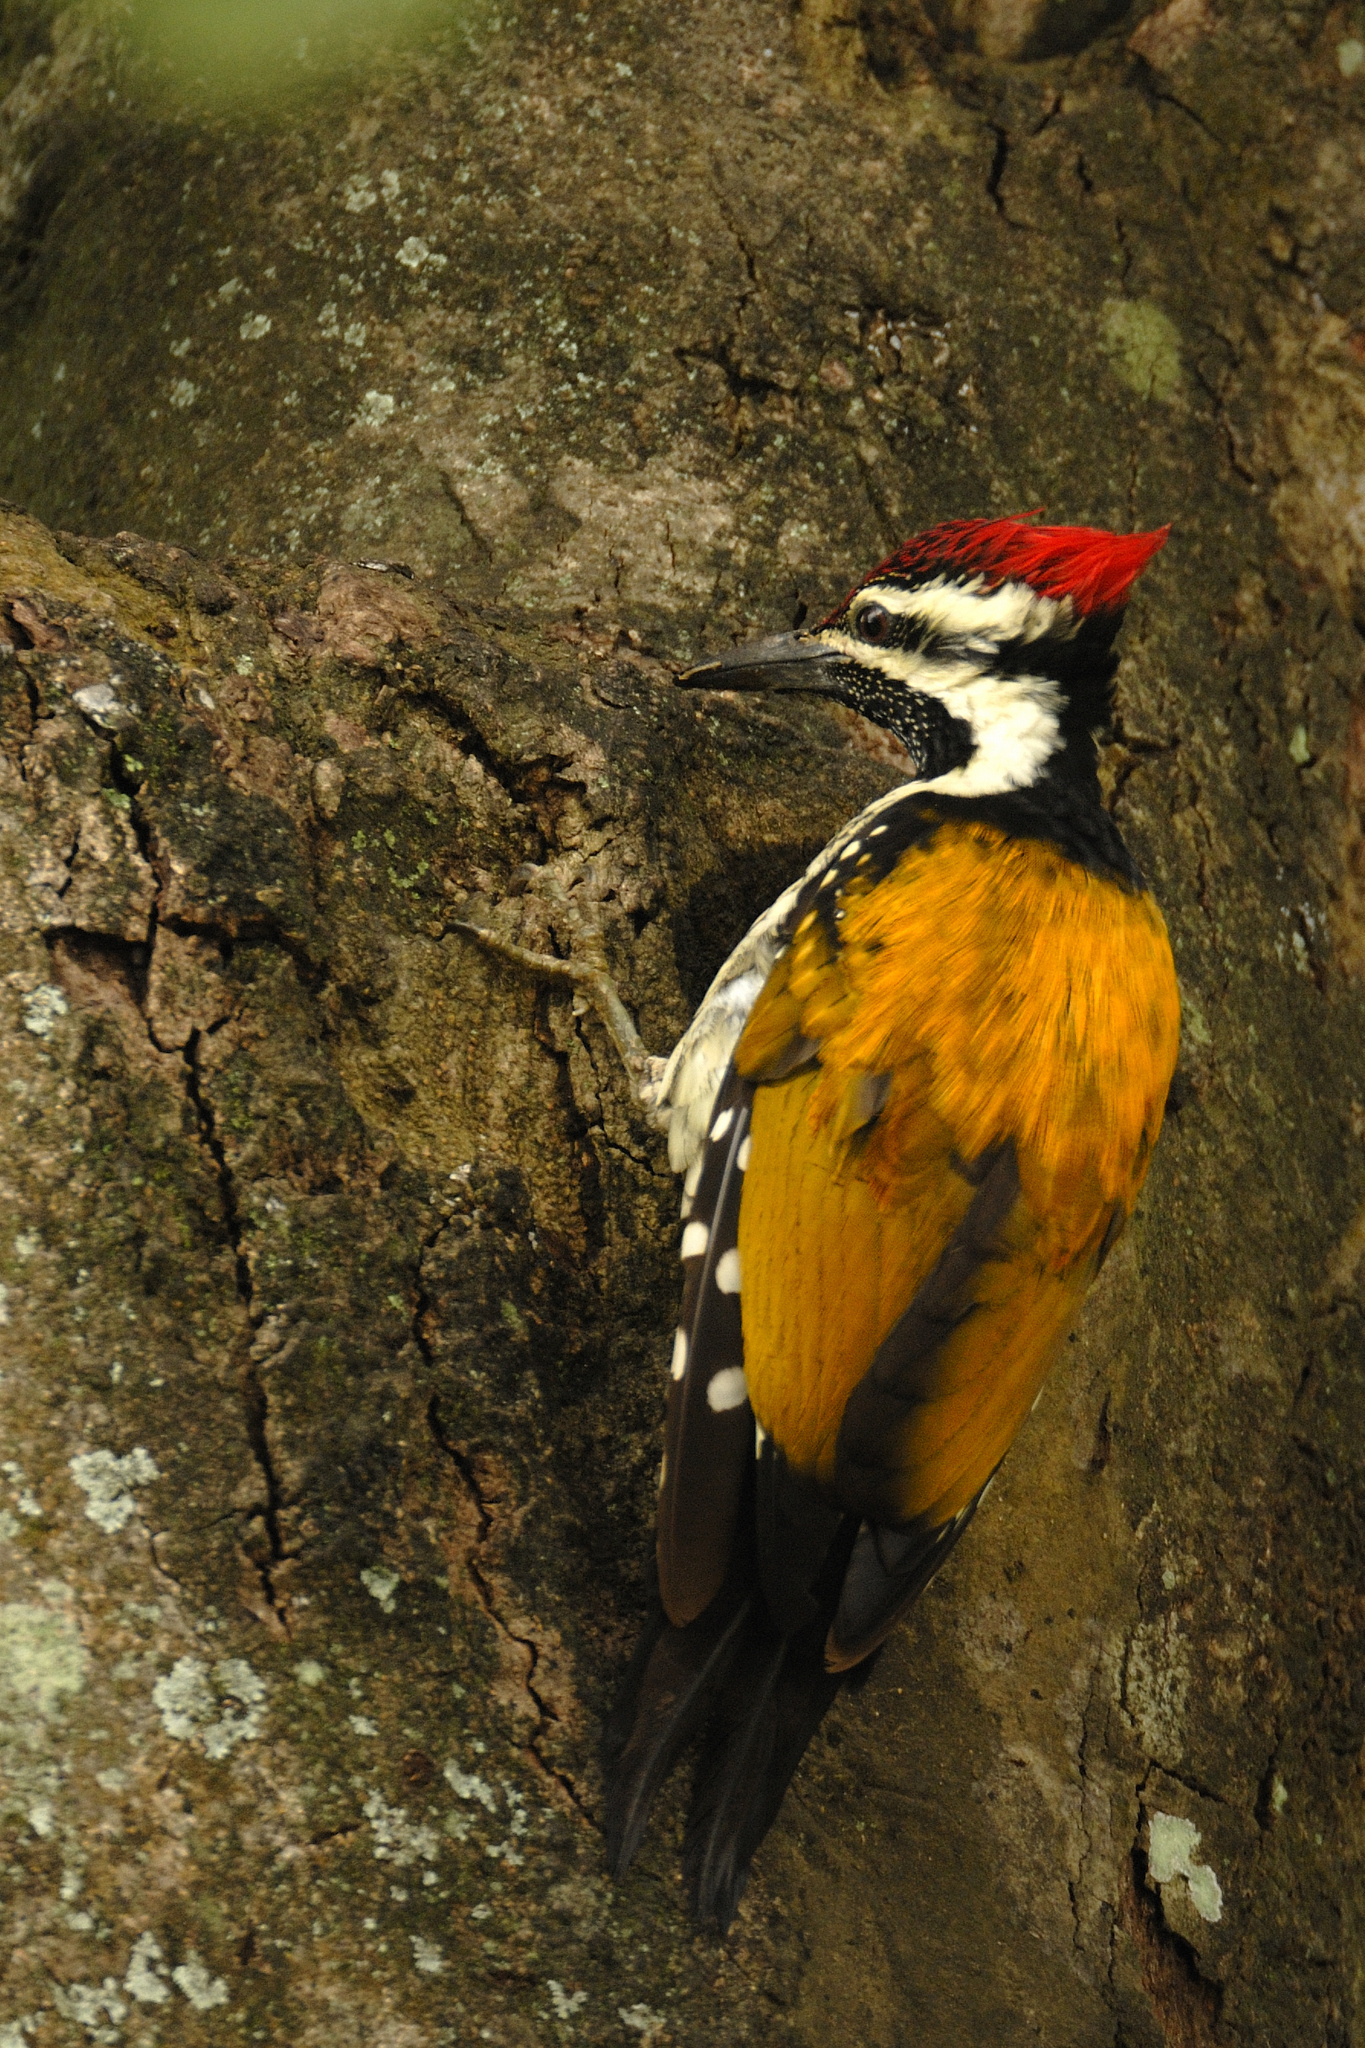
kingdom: Animalia
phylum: Chordata
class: Aves
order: Piciformes
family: Picidae
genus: Dinopium
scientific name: Dinopium benghalense
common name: Black-rumped flameback
